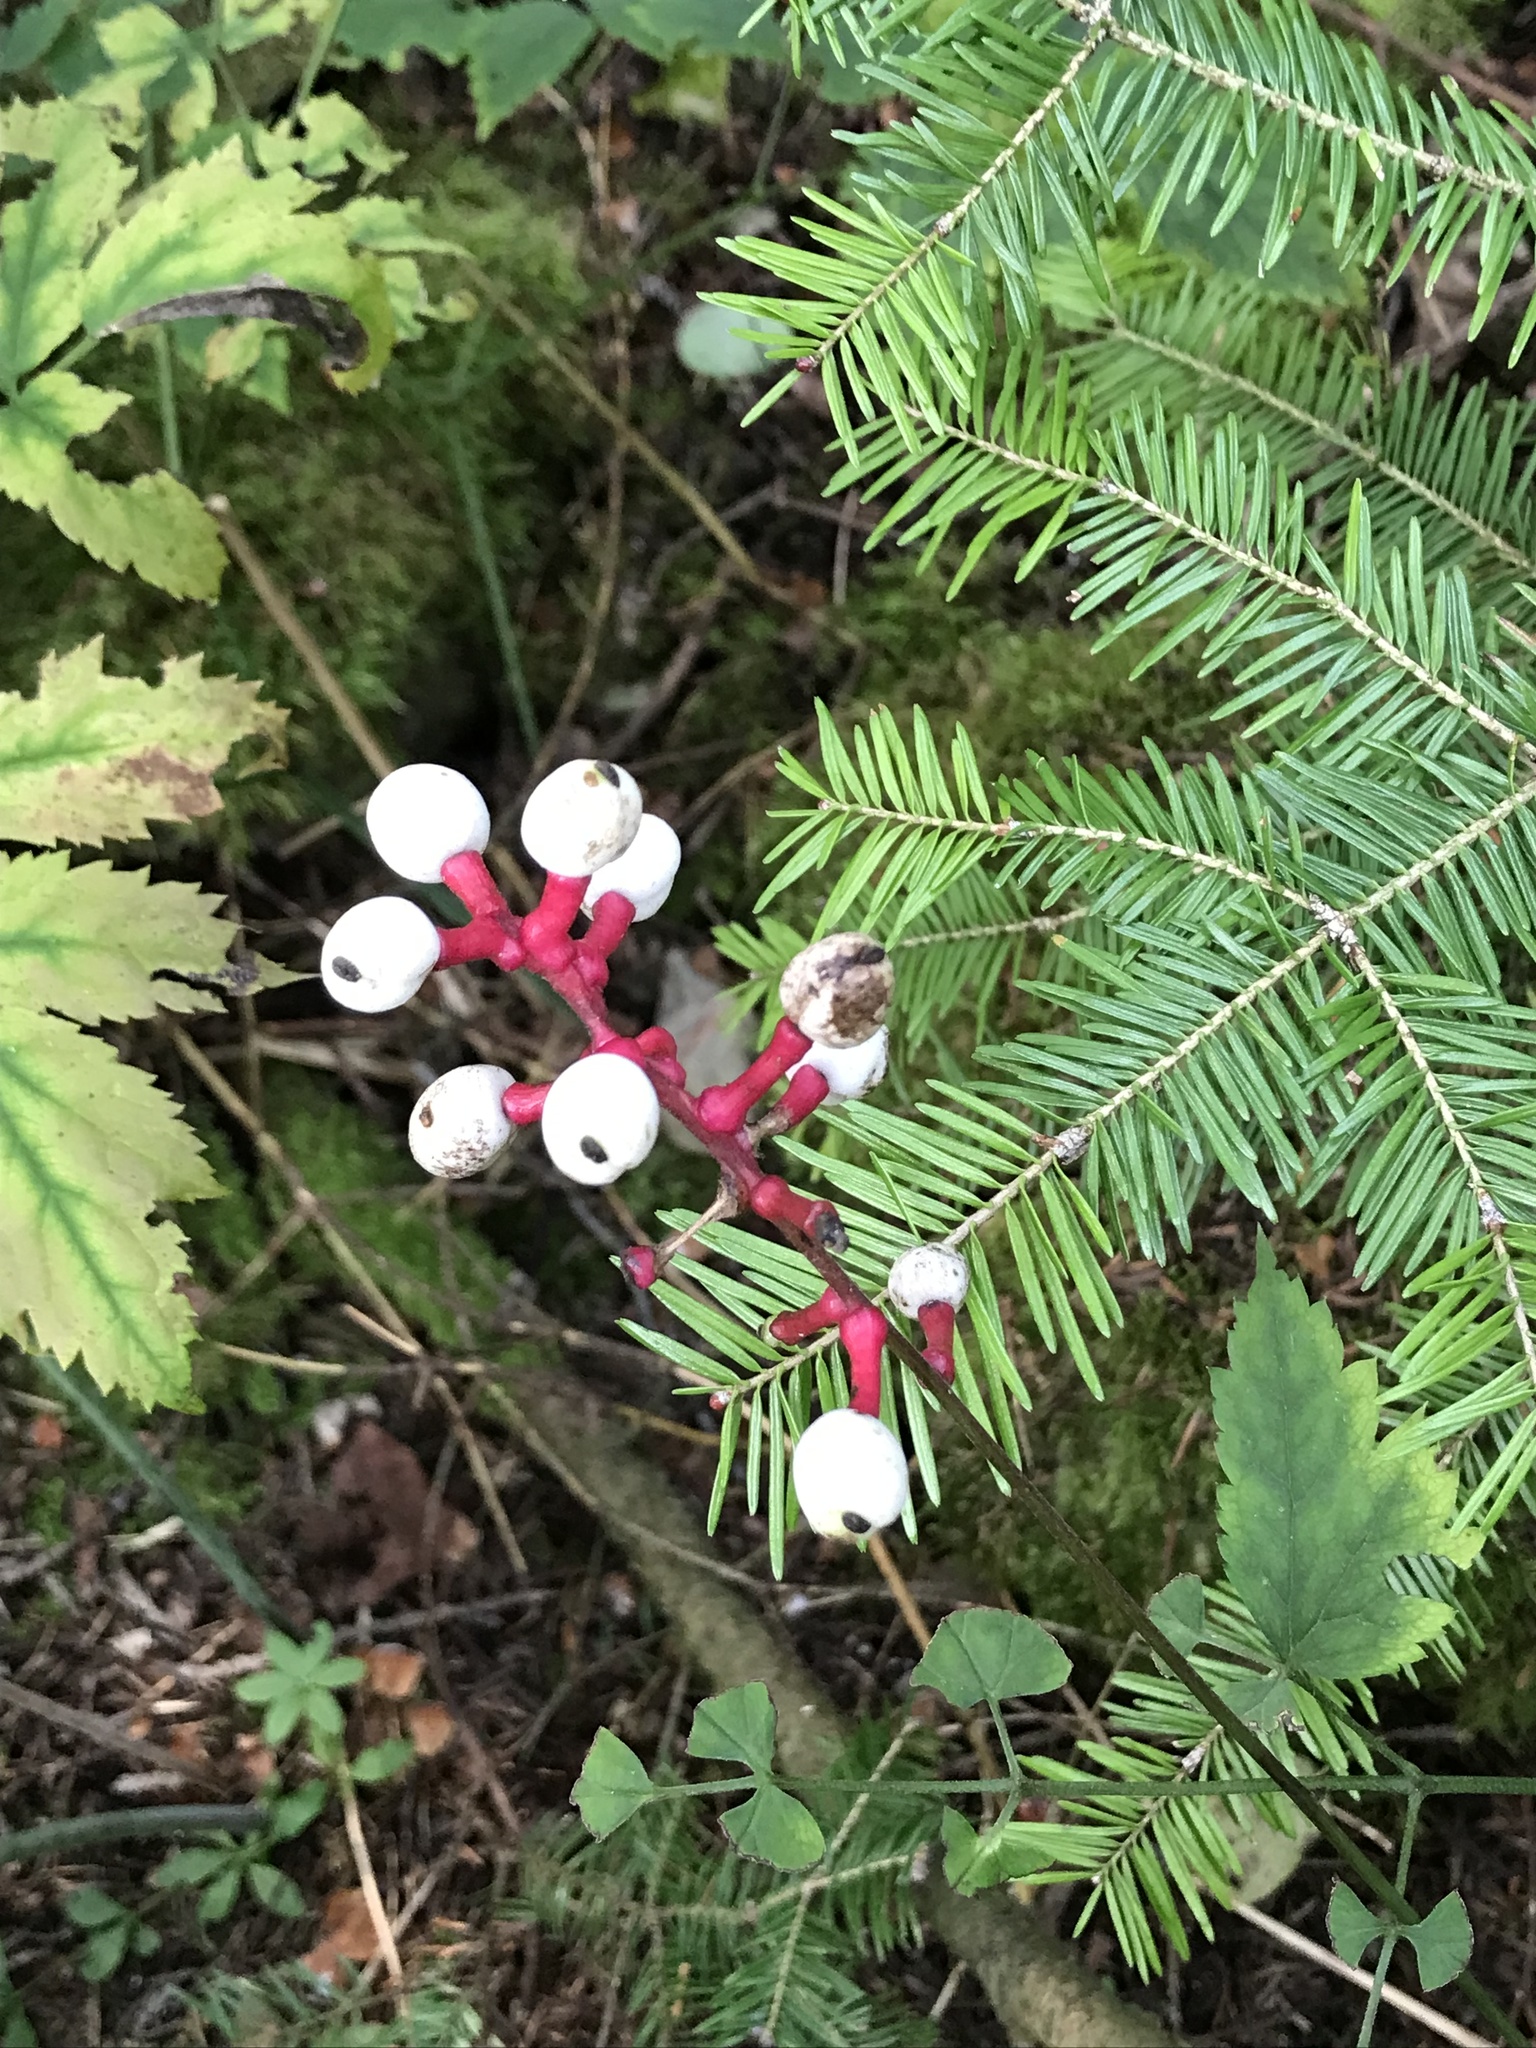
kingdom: Plantae
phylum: Tracheophyta
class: Magnoliopsida
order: Ranunculales
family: Ranunculaceae
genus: Actaea
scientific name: Actaea pachypoda
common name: Doll's-eyes
